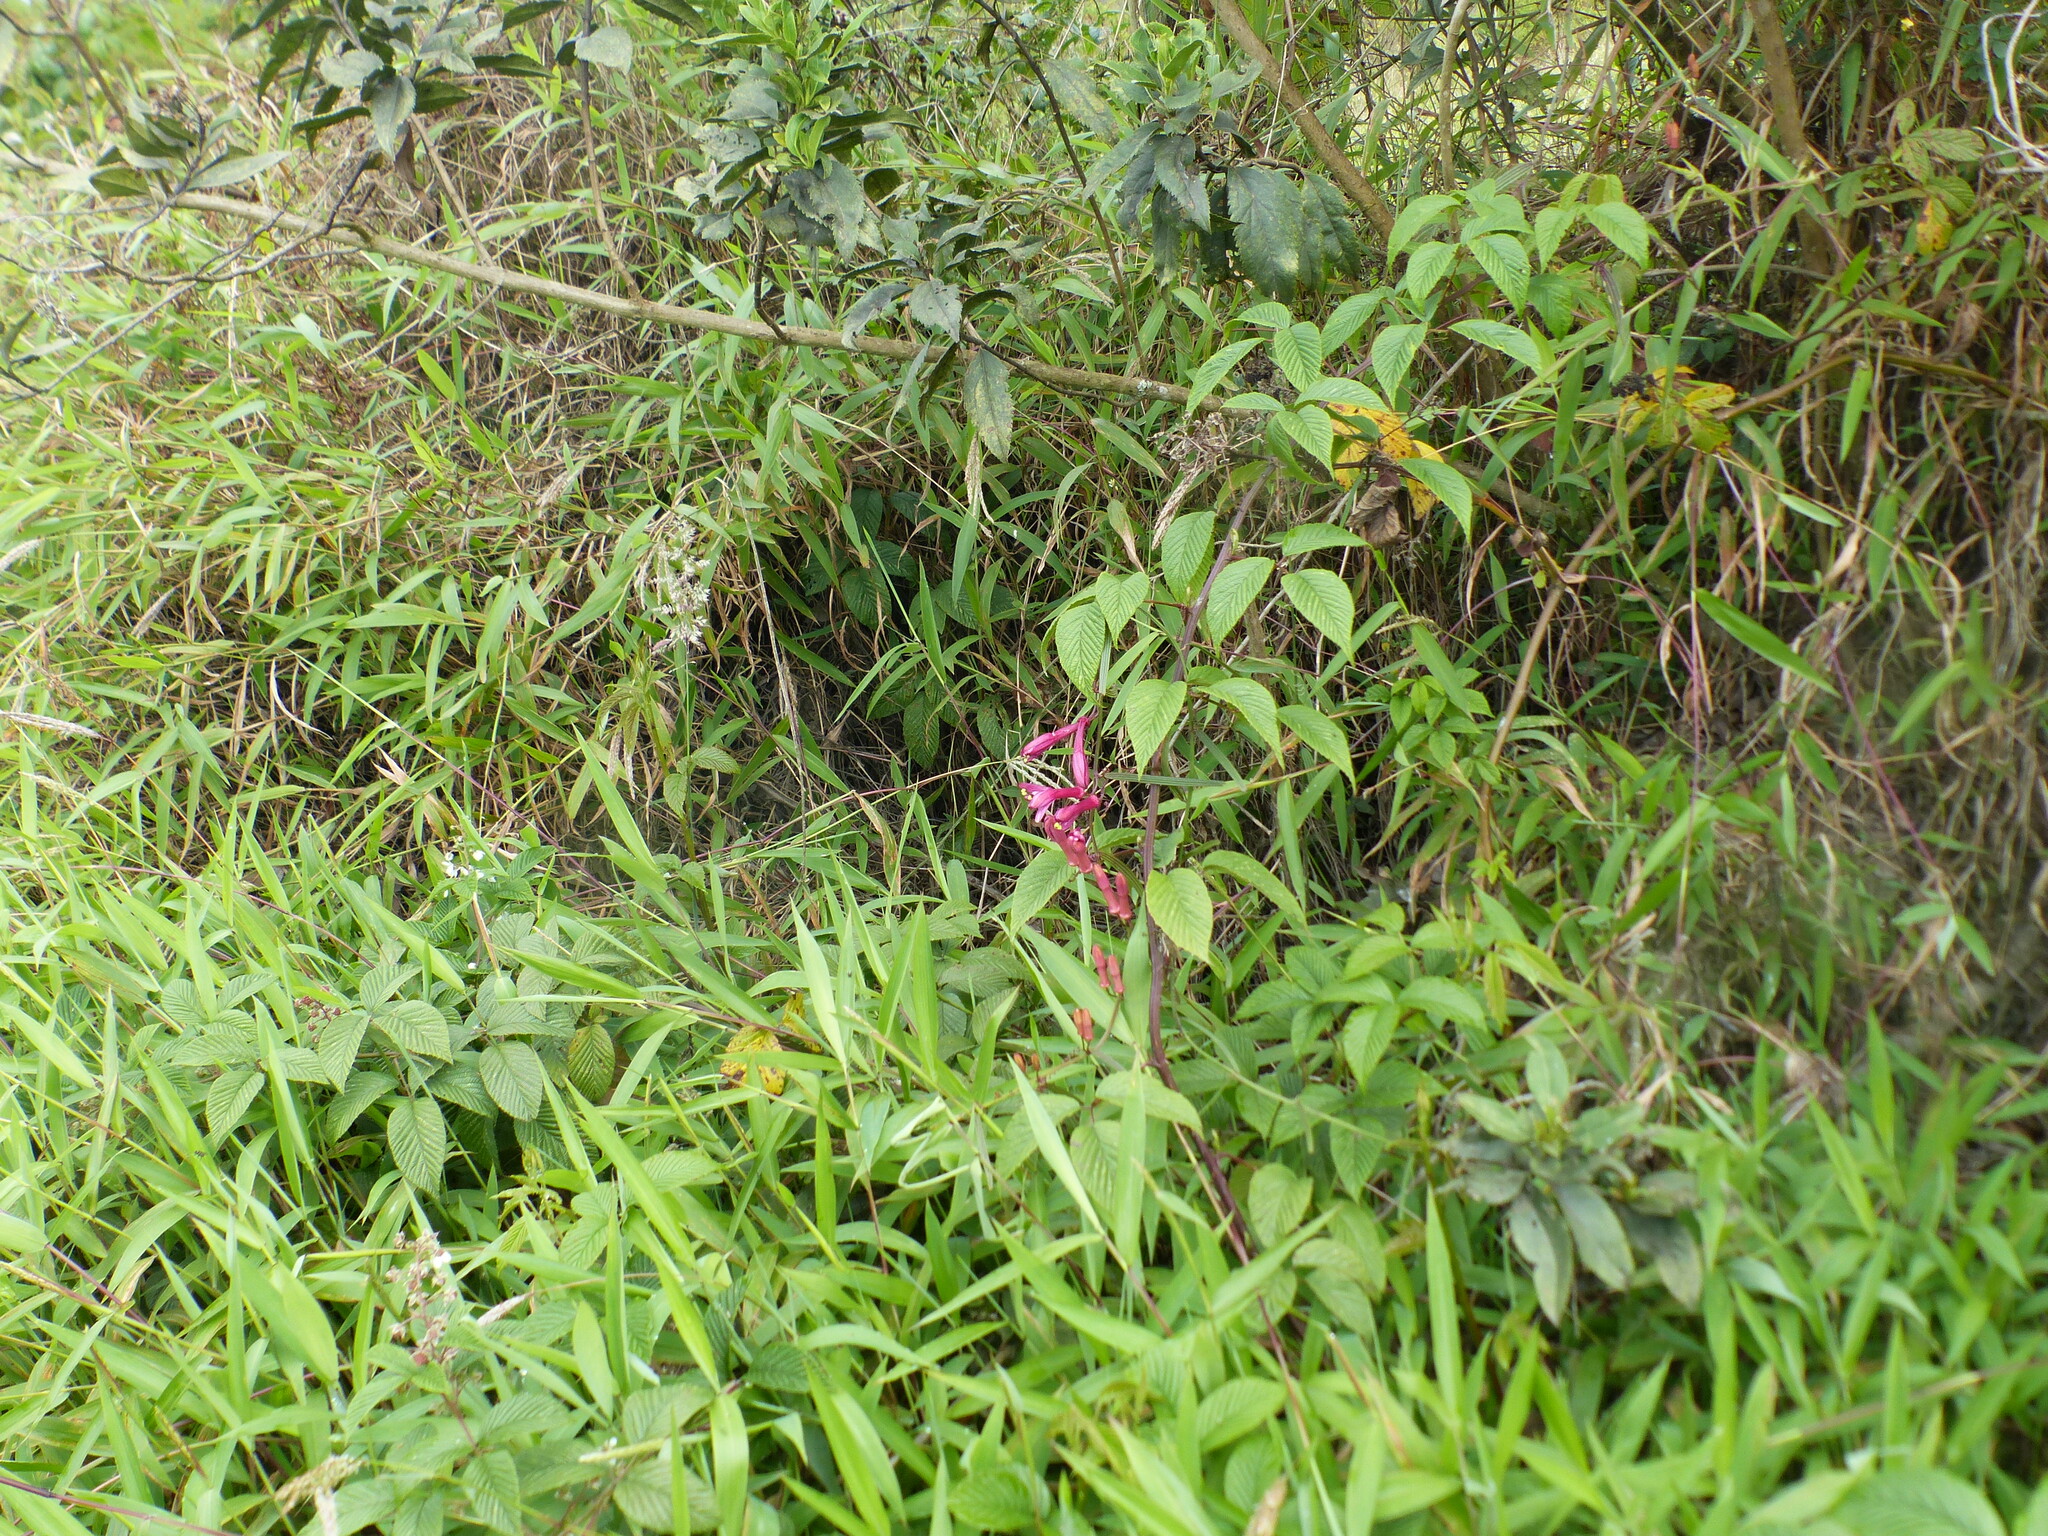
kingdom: Plantae
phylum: Tracheophyta
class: Magnoliopsida
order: Malpighiales
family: Passifloraceae
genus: Passiflora
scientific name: Passiflora
